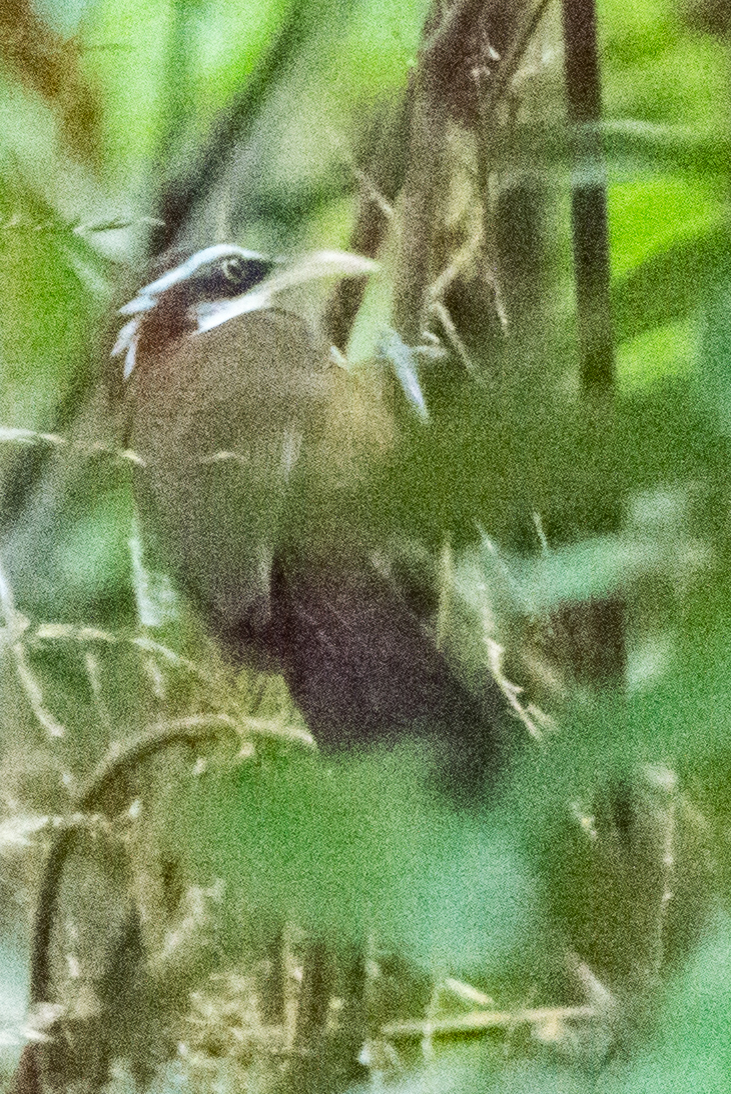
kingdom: Animalia
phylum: Chordata
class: Aves
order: Passeriformes
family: Timaliidae
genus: Pomatorhinus
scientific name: Pomatorhinus schisticeps
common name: White-browed scimitar babbler
